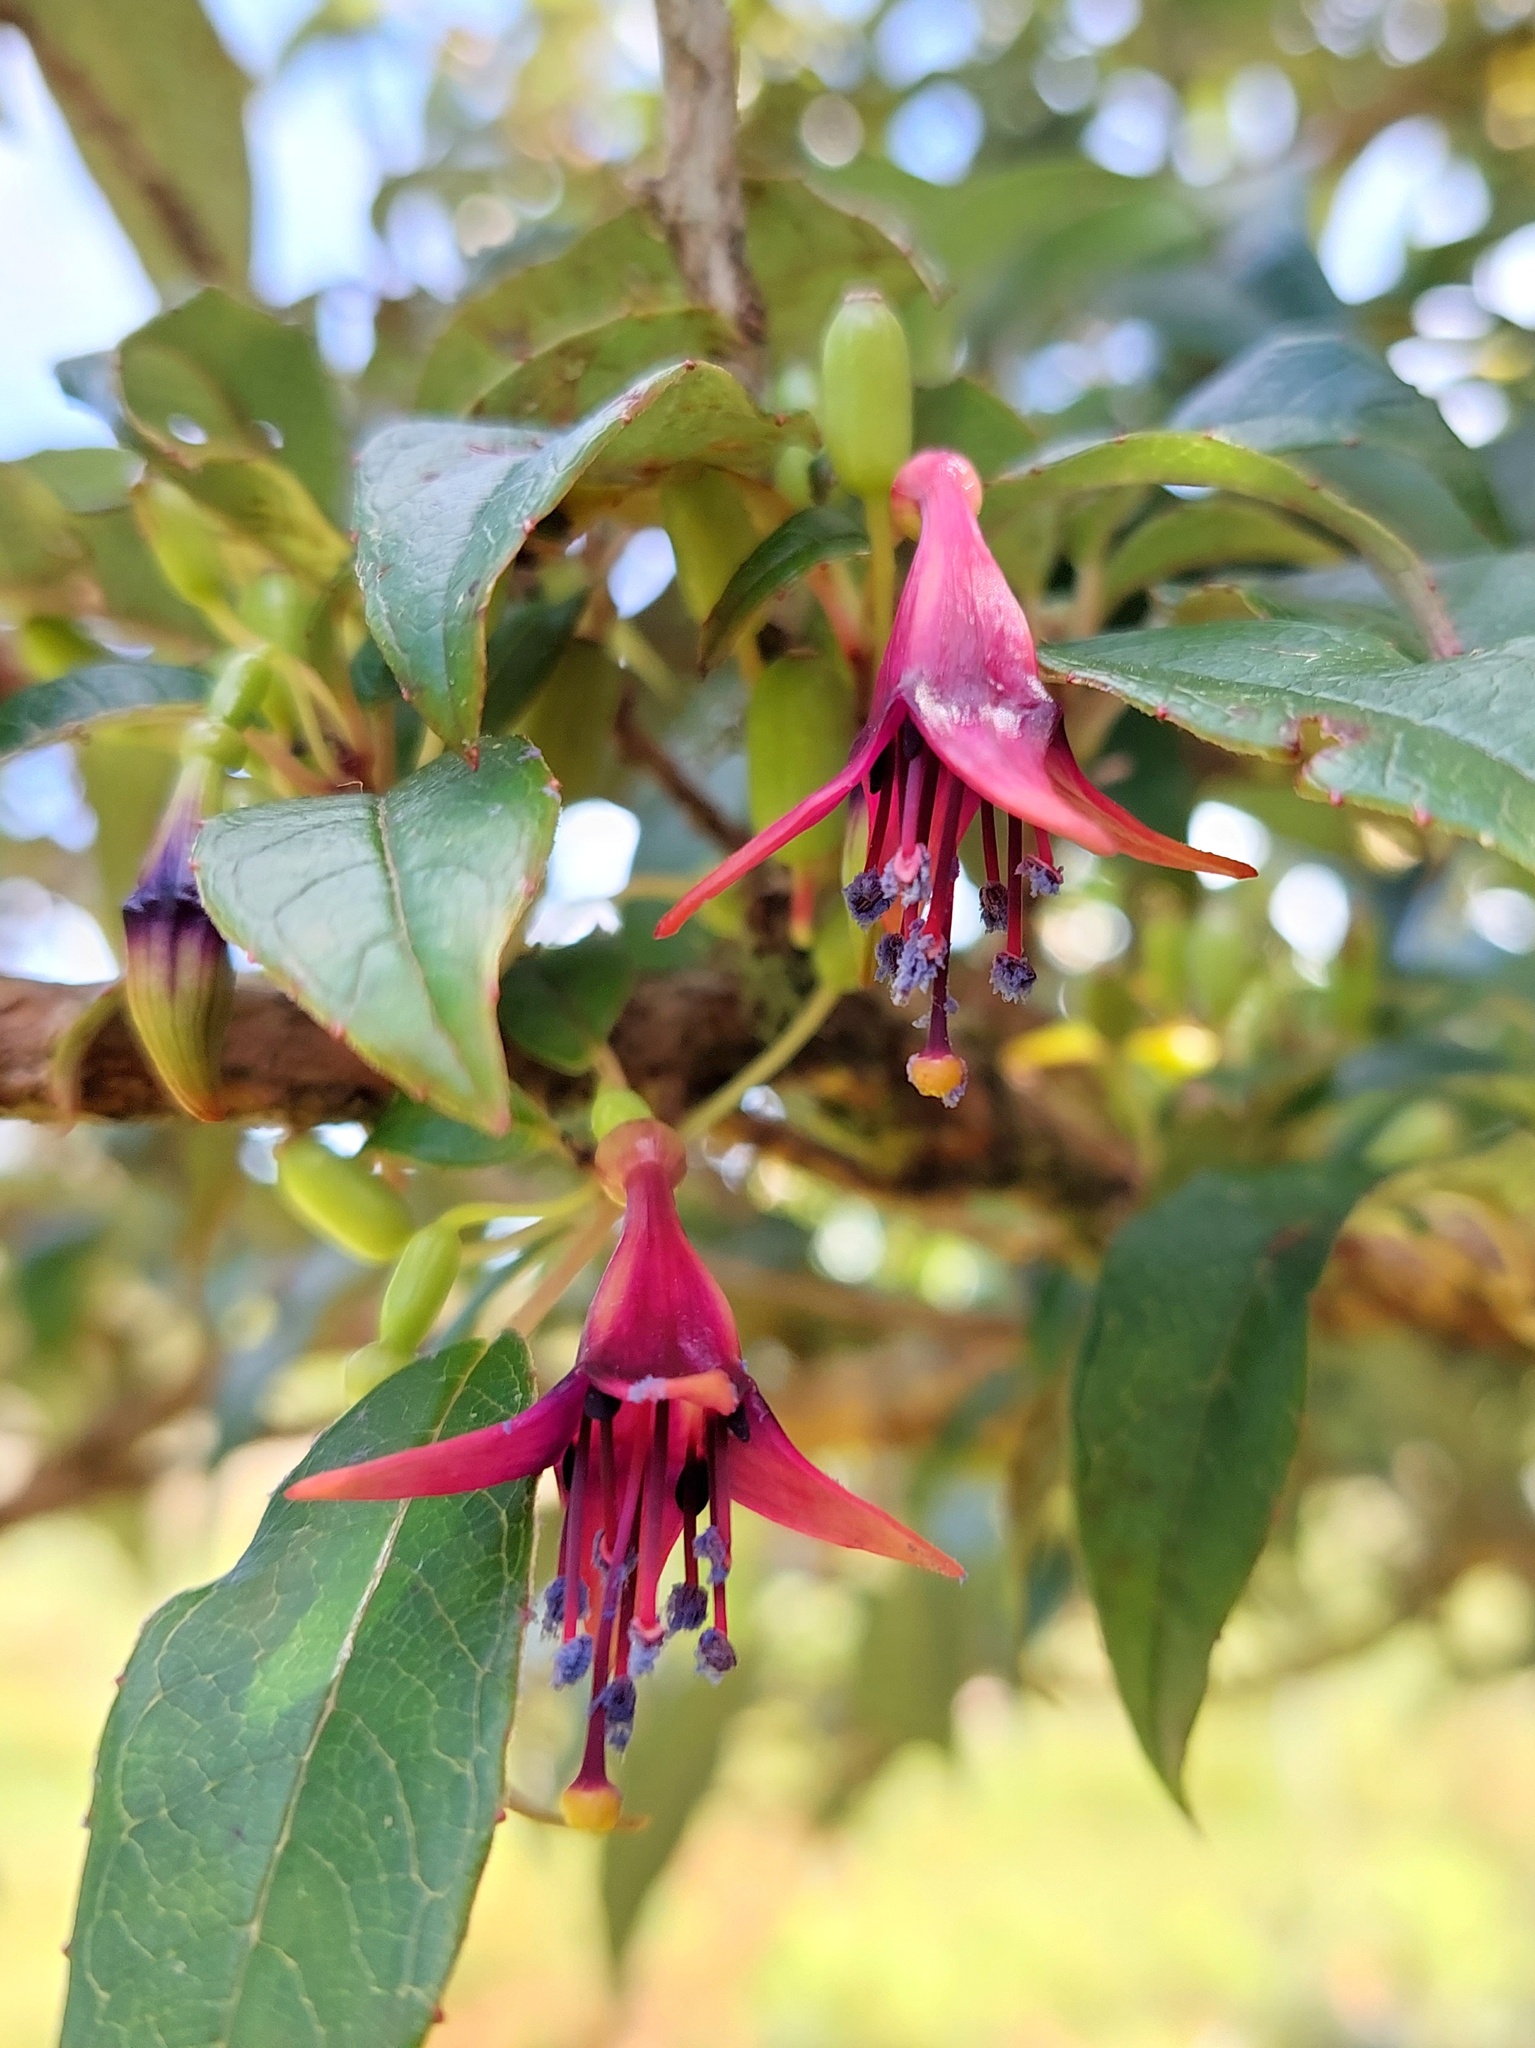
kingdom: Plantae
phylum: Tracheophyta
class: Magnoliopsida
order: Myrtales
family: Onagraceae
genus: Fuchsia
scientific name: Fuchsia excorticata
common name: Tree fuchsia
